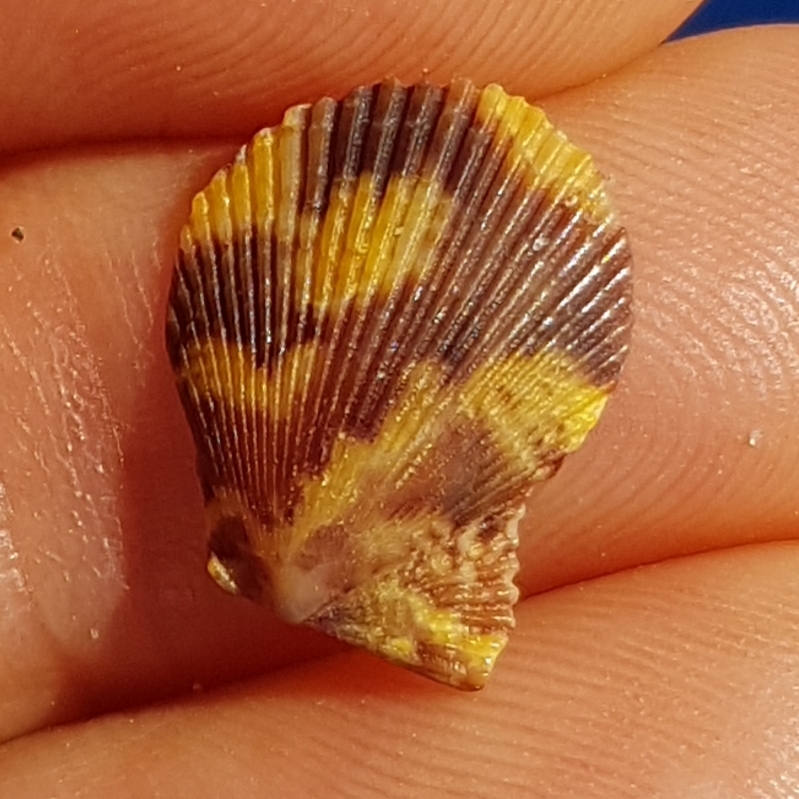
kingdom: Animalia
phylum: Mollusca
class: Bivalvia
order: Pectinida
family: Pectinidae
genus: Mimachlamys
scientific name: Mimachlamys varia
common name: Variegated scallop
